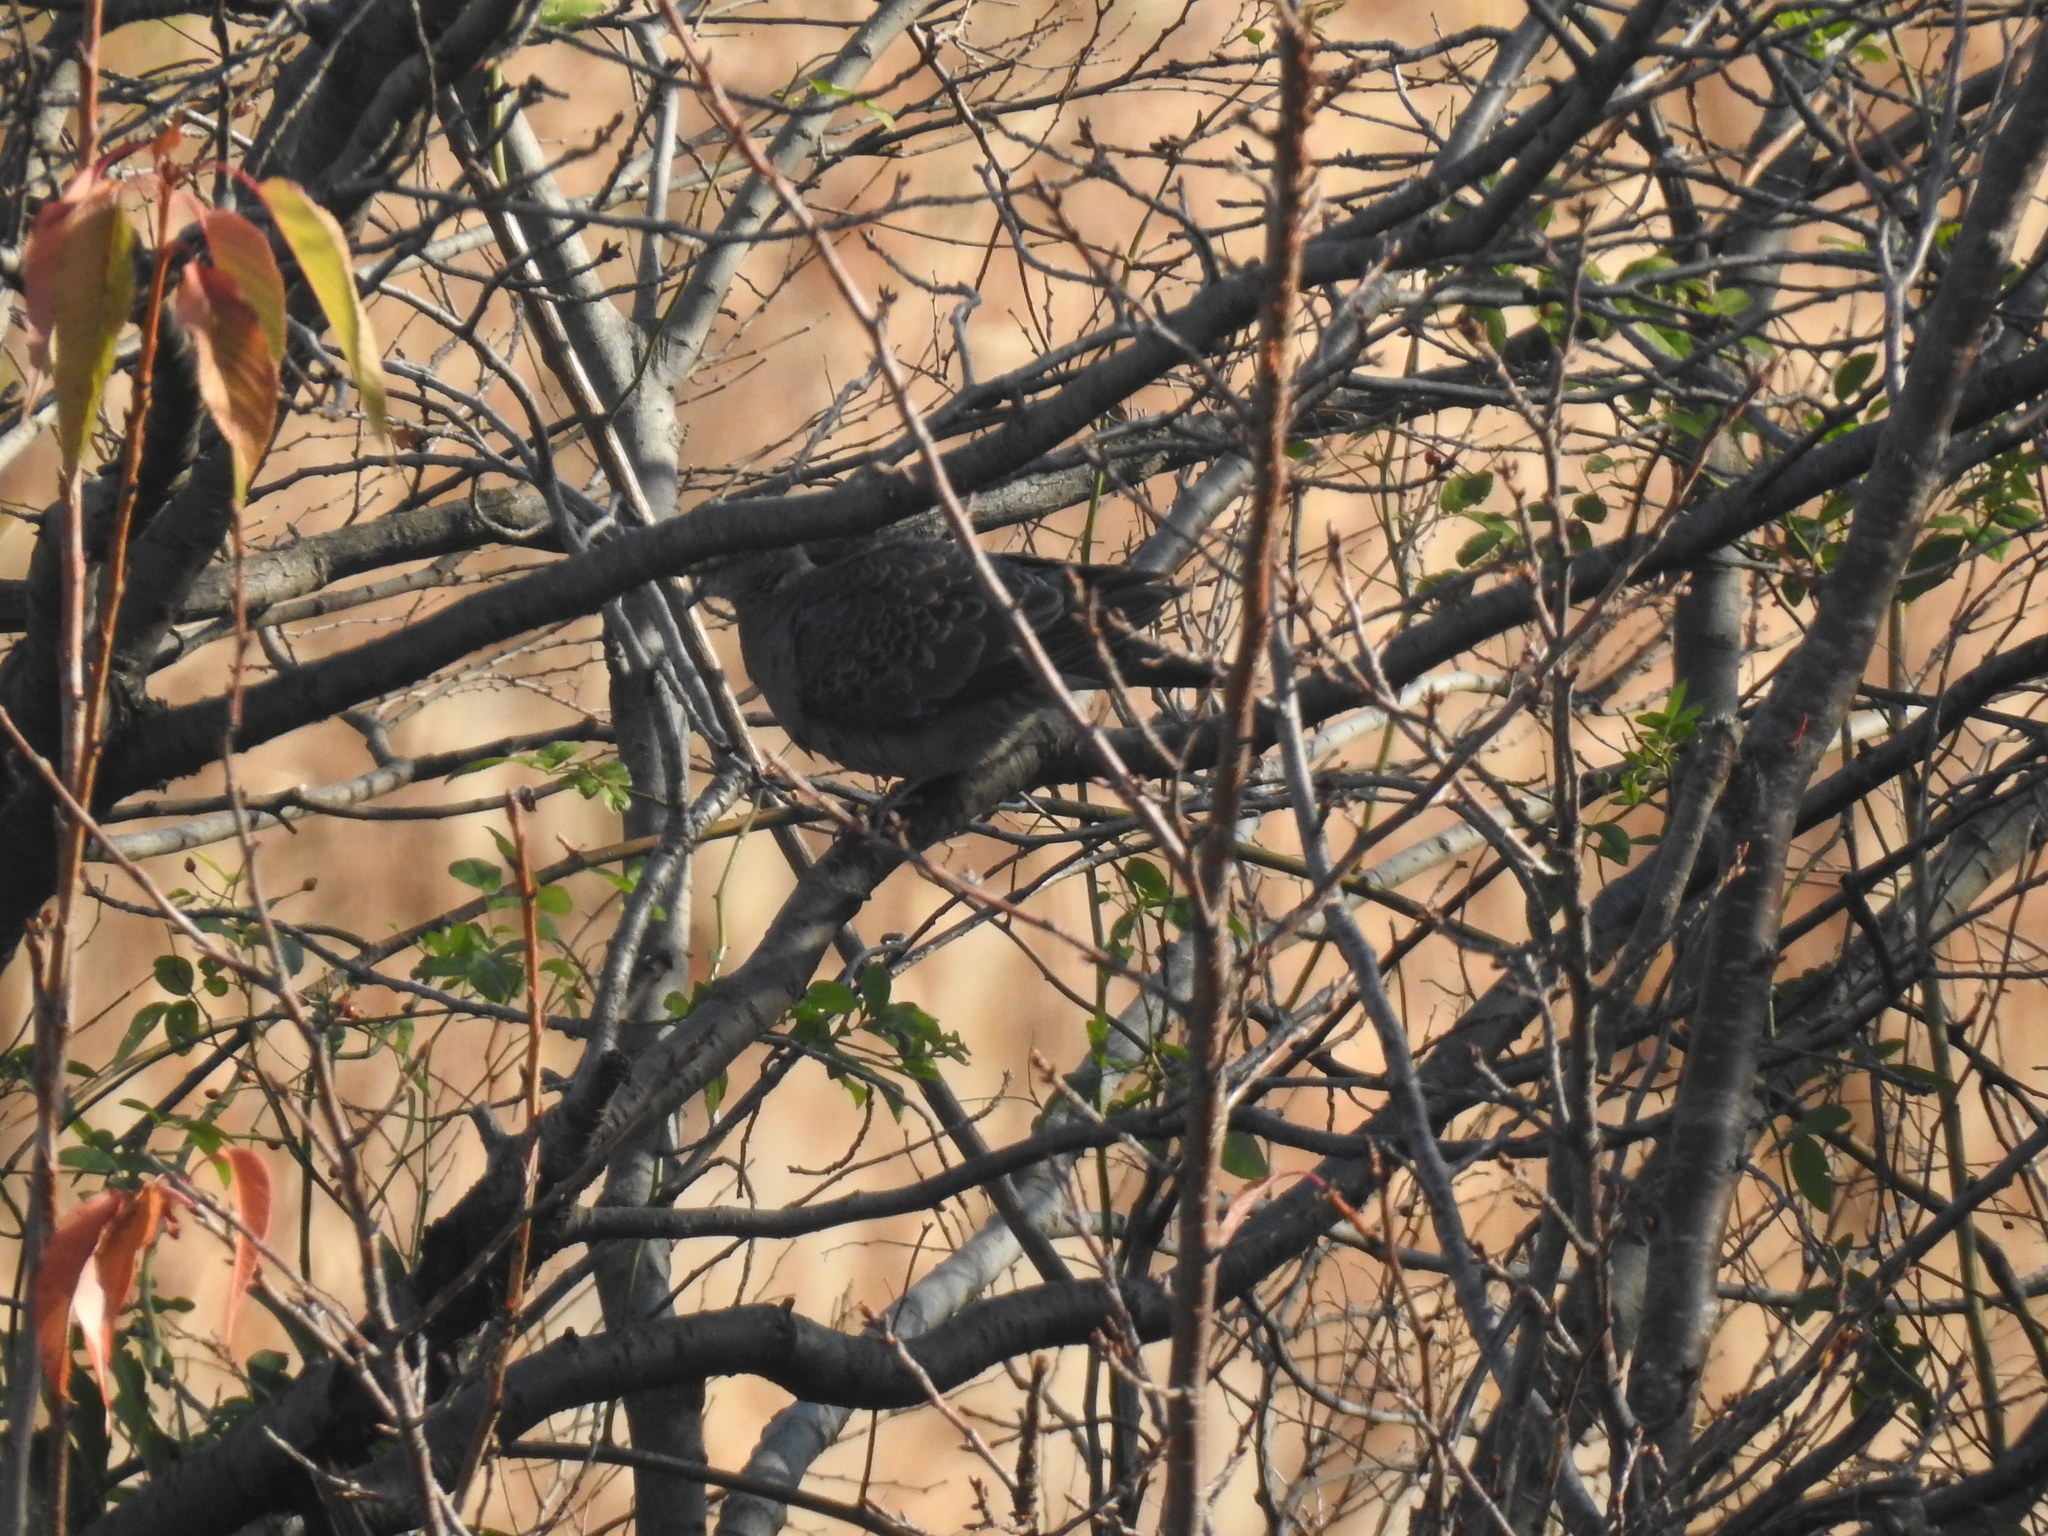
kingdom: Animalia
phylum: Chordata
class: Aves
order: Columbiformes
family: Columbidae
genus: Streptopelia
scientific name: Streptopelia orientalis
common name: Oriental turtle dove
